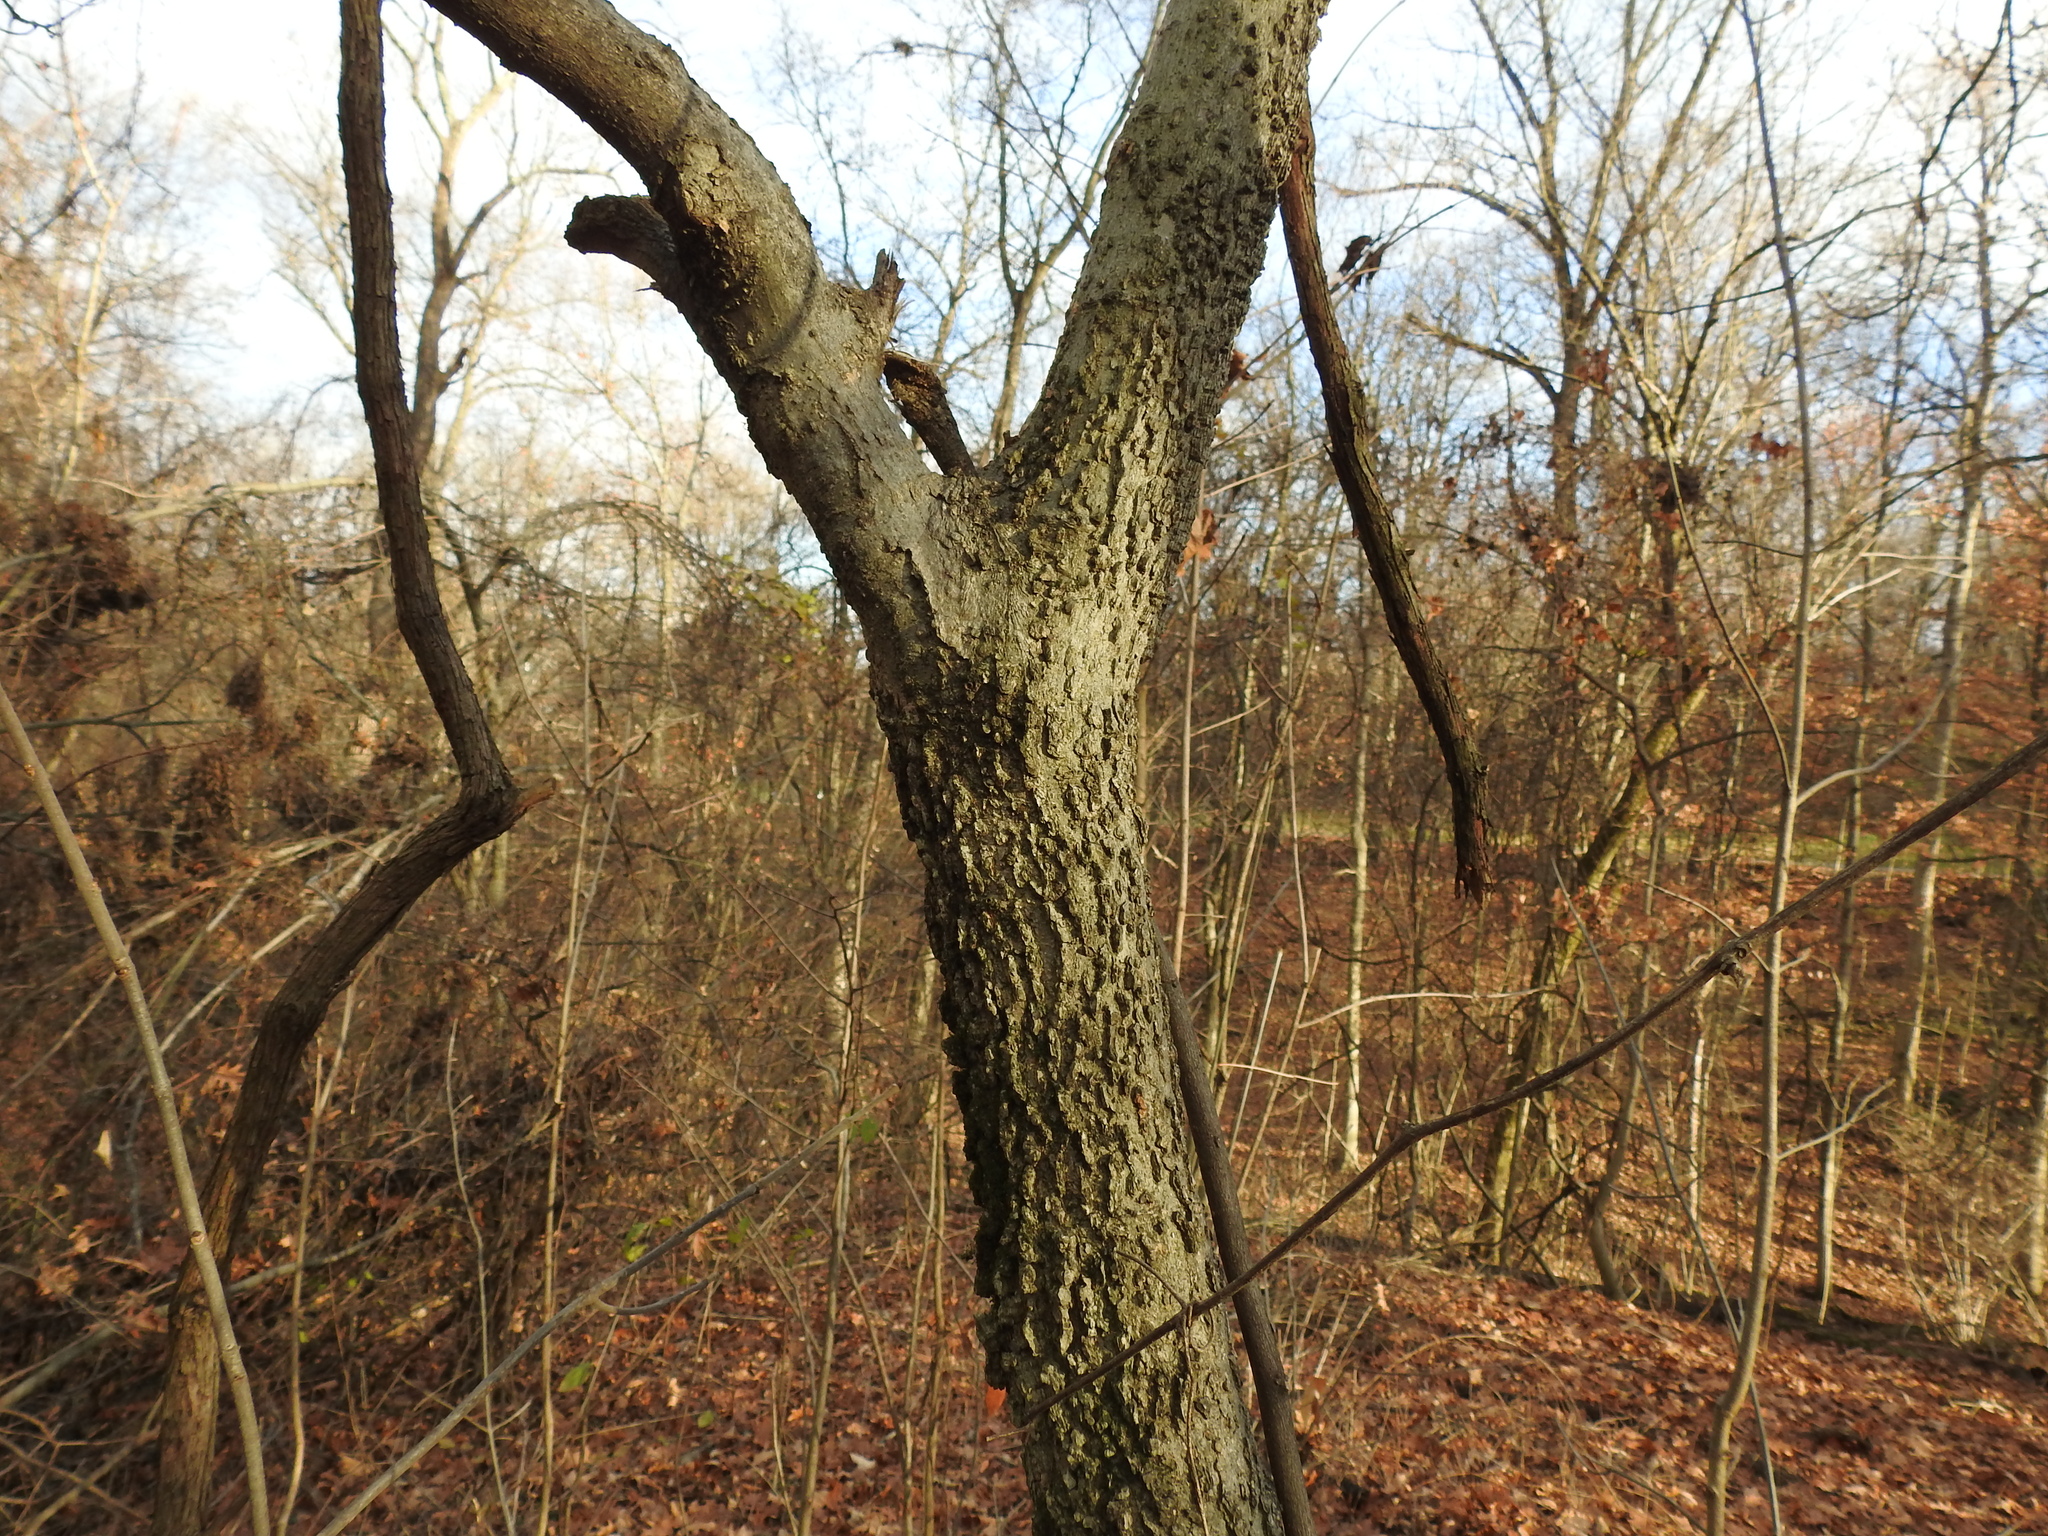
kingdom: Plantae
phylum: Tracheophyta
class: Magnoliopsida
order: Rosales
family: Cannabaceae
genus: Celtis
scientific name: Celtis occidentalis
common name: Common hackberry
